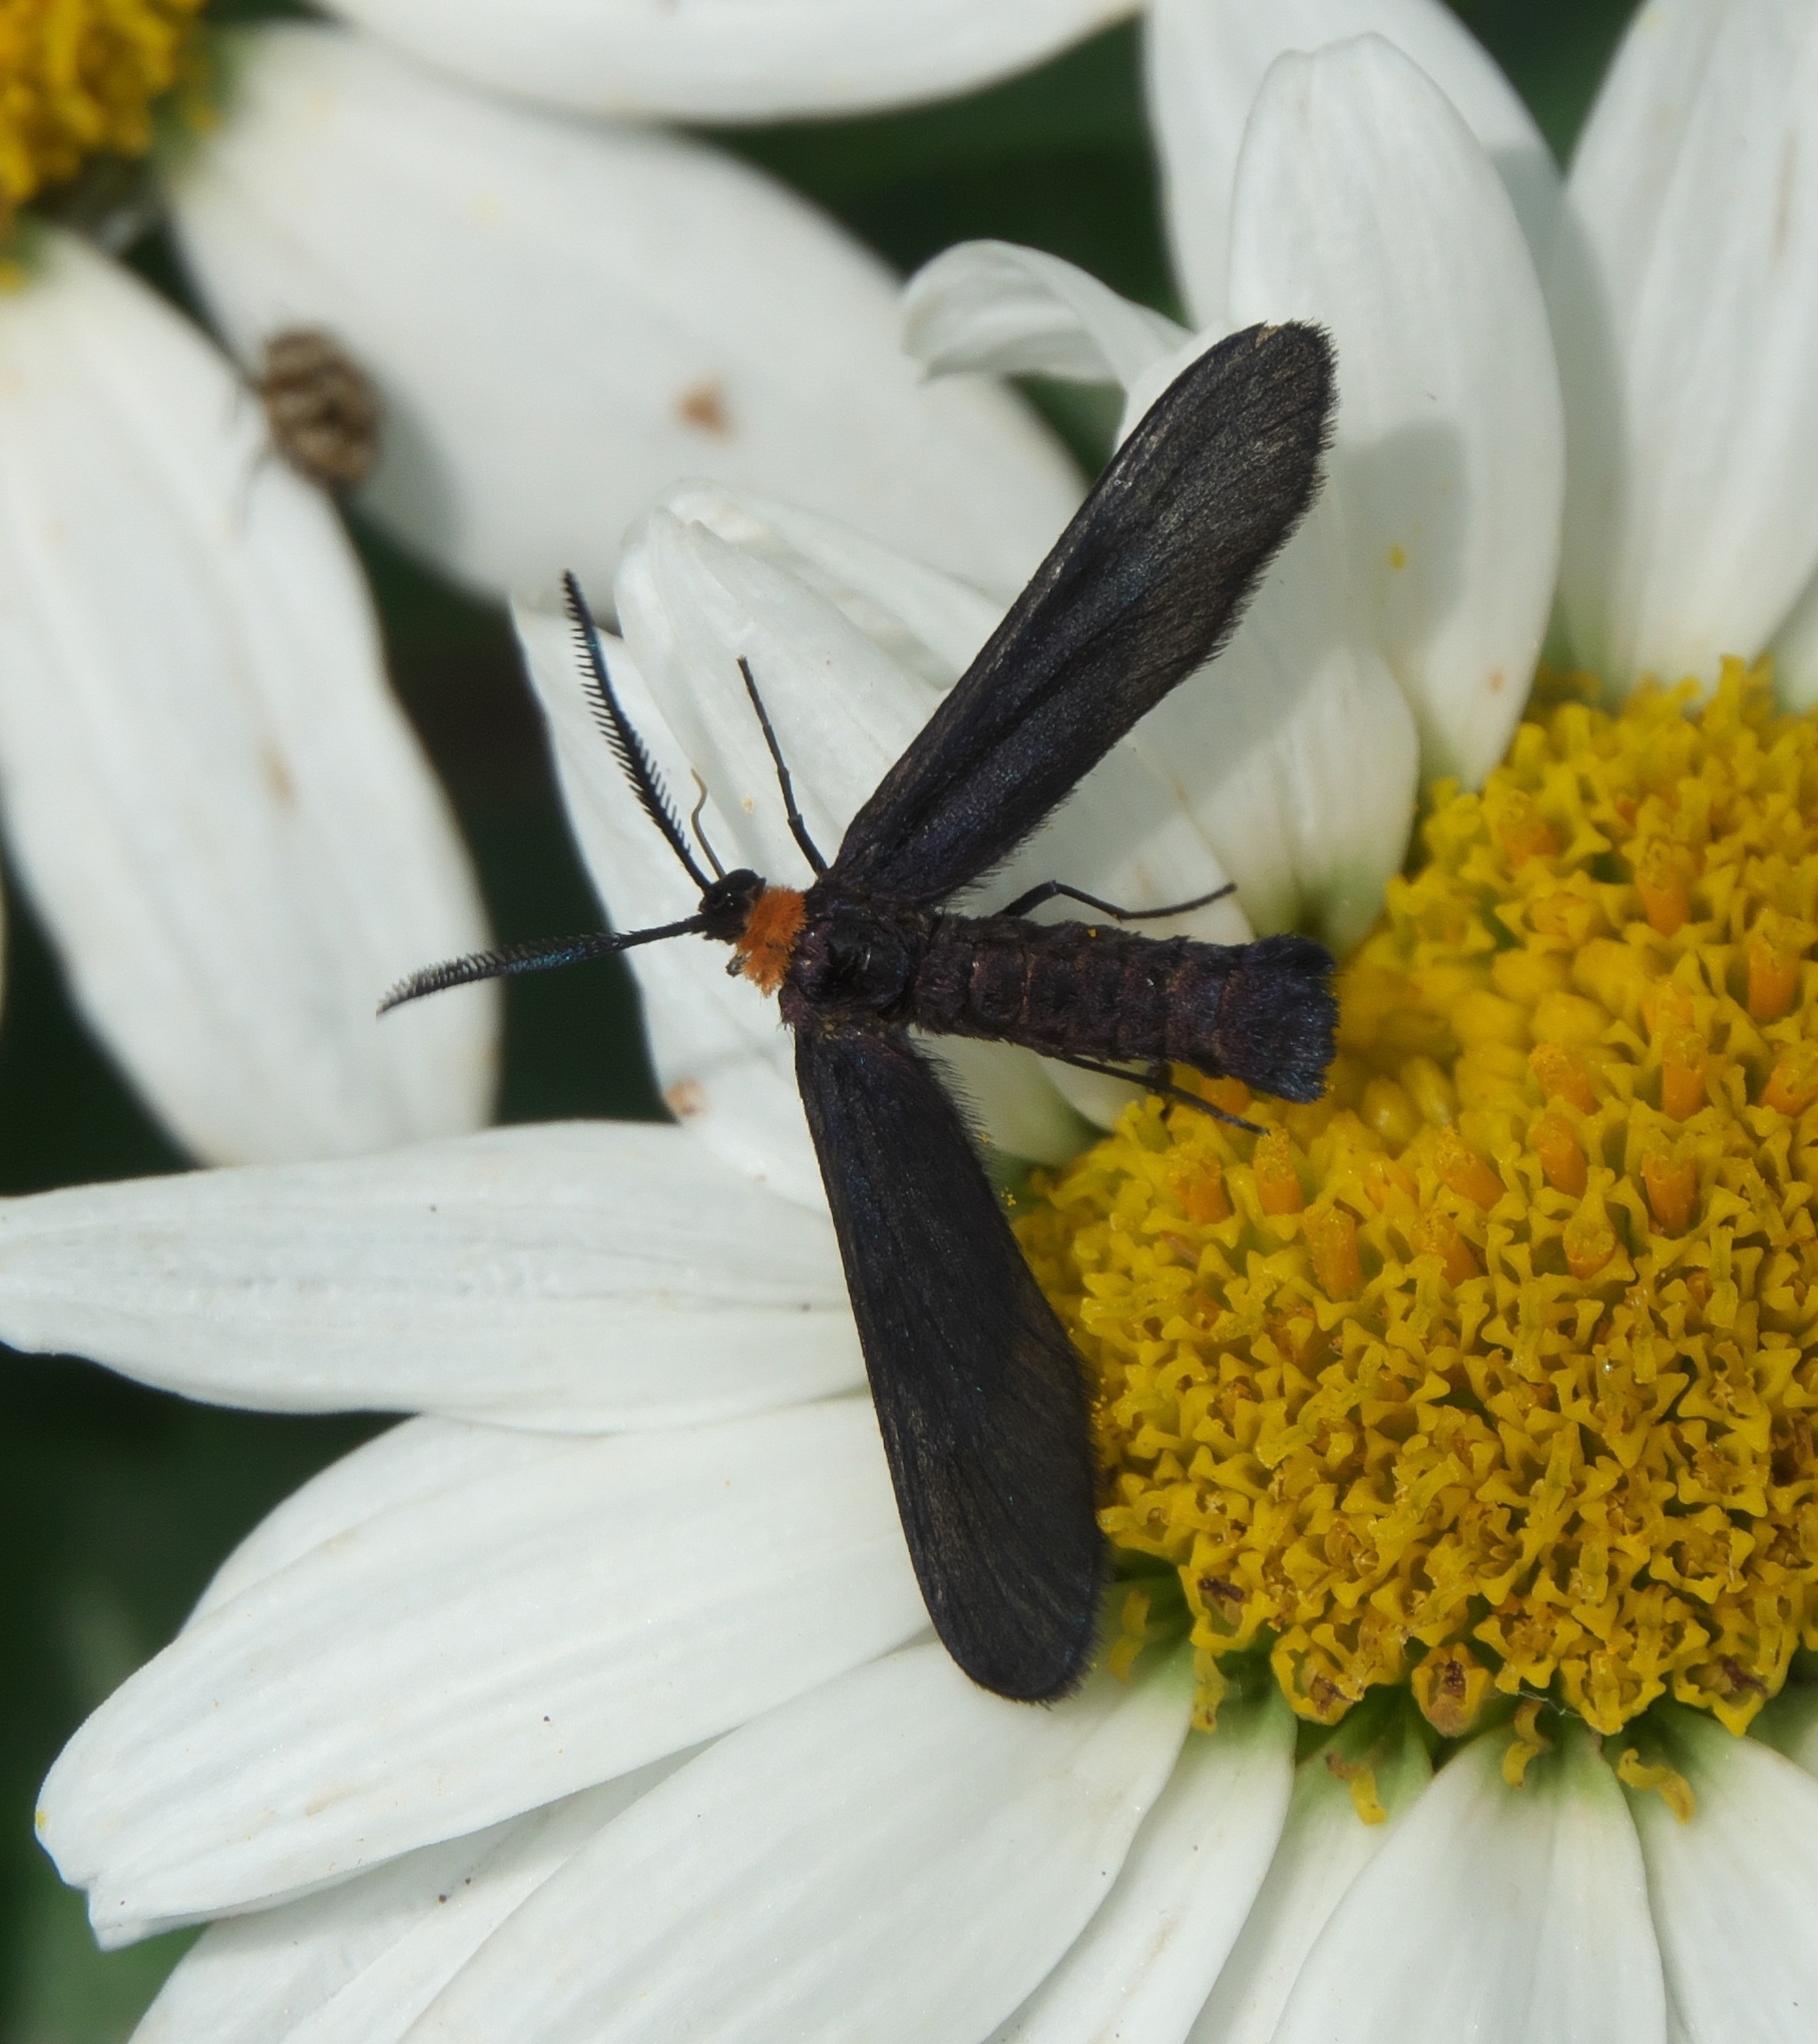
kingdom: Animalia
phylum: Arthropoda
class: Insecta
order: Lepidoptera
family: Zygaenidae
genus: Harrisina
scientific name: Harrisina americana
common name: Grapeleaf skeletonizer moth
